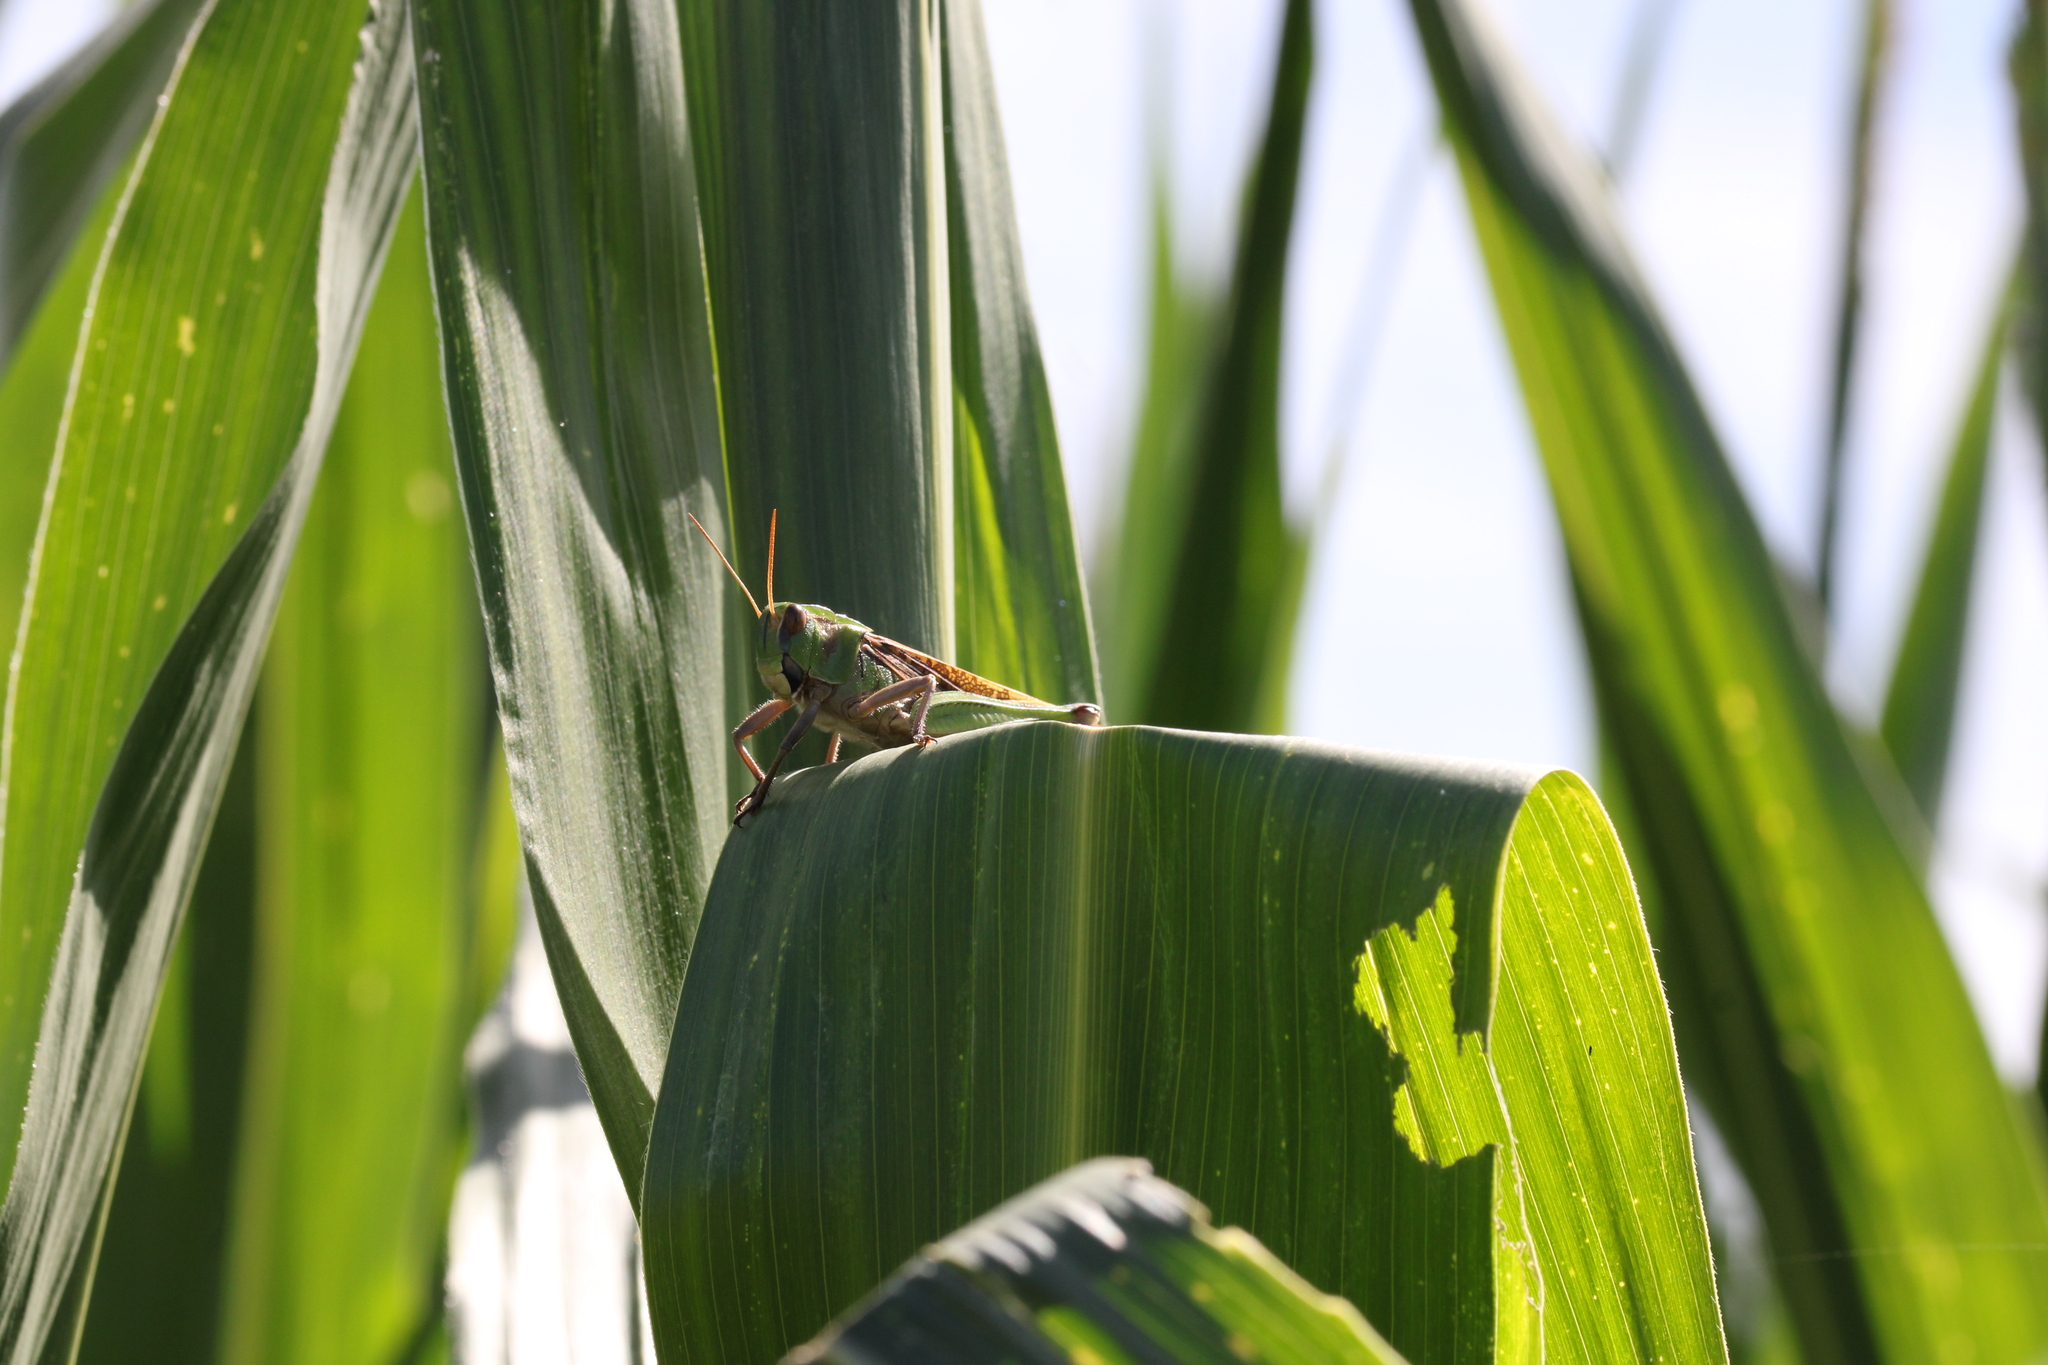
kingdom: Animalia
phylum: Arthropoda
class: Insecta
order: Orthoptera
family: Acrididae
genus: Locusta
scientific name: Locusta migratoria
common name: Migratory locust
